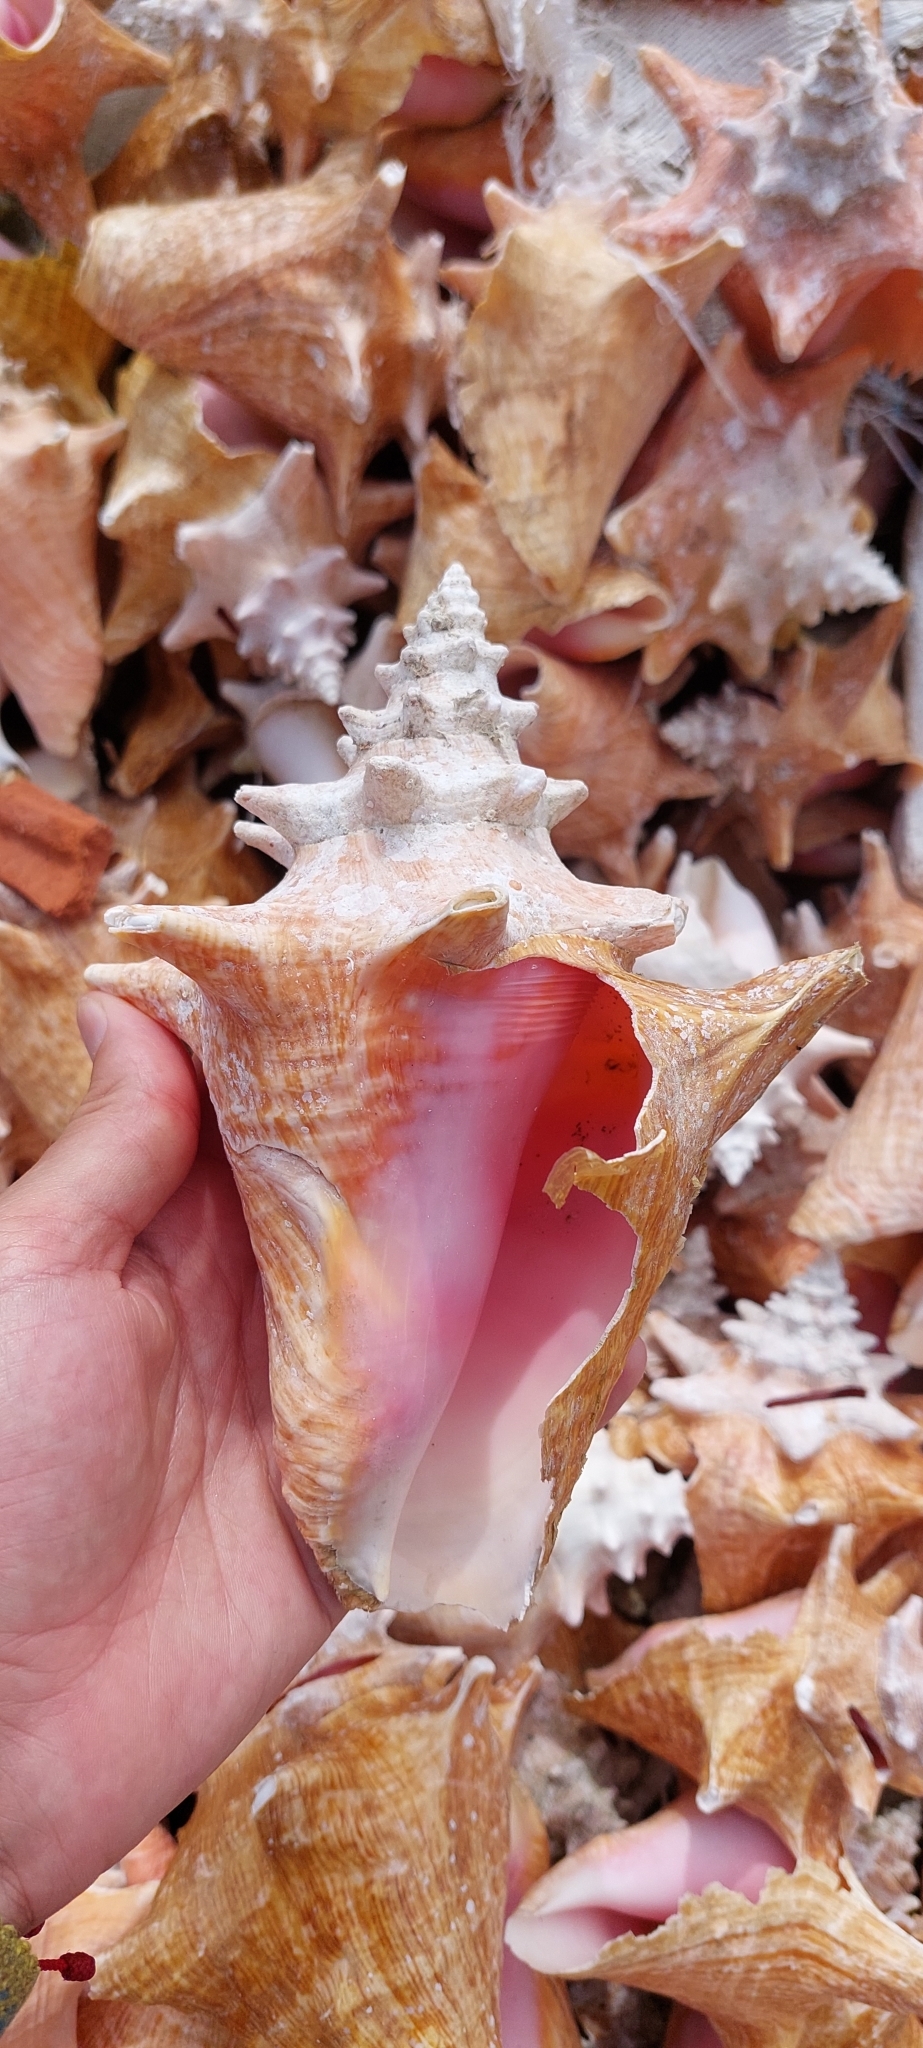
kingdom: Animalia
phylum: Mollusca
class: Gastropoda
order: Littorinimorpha
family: Strombidae
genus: Aliger
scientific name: Aliger gigas
